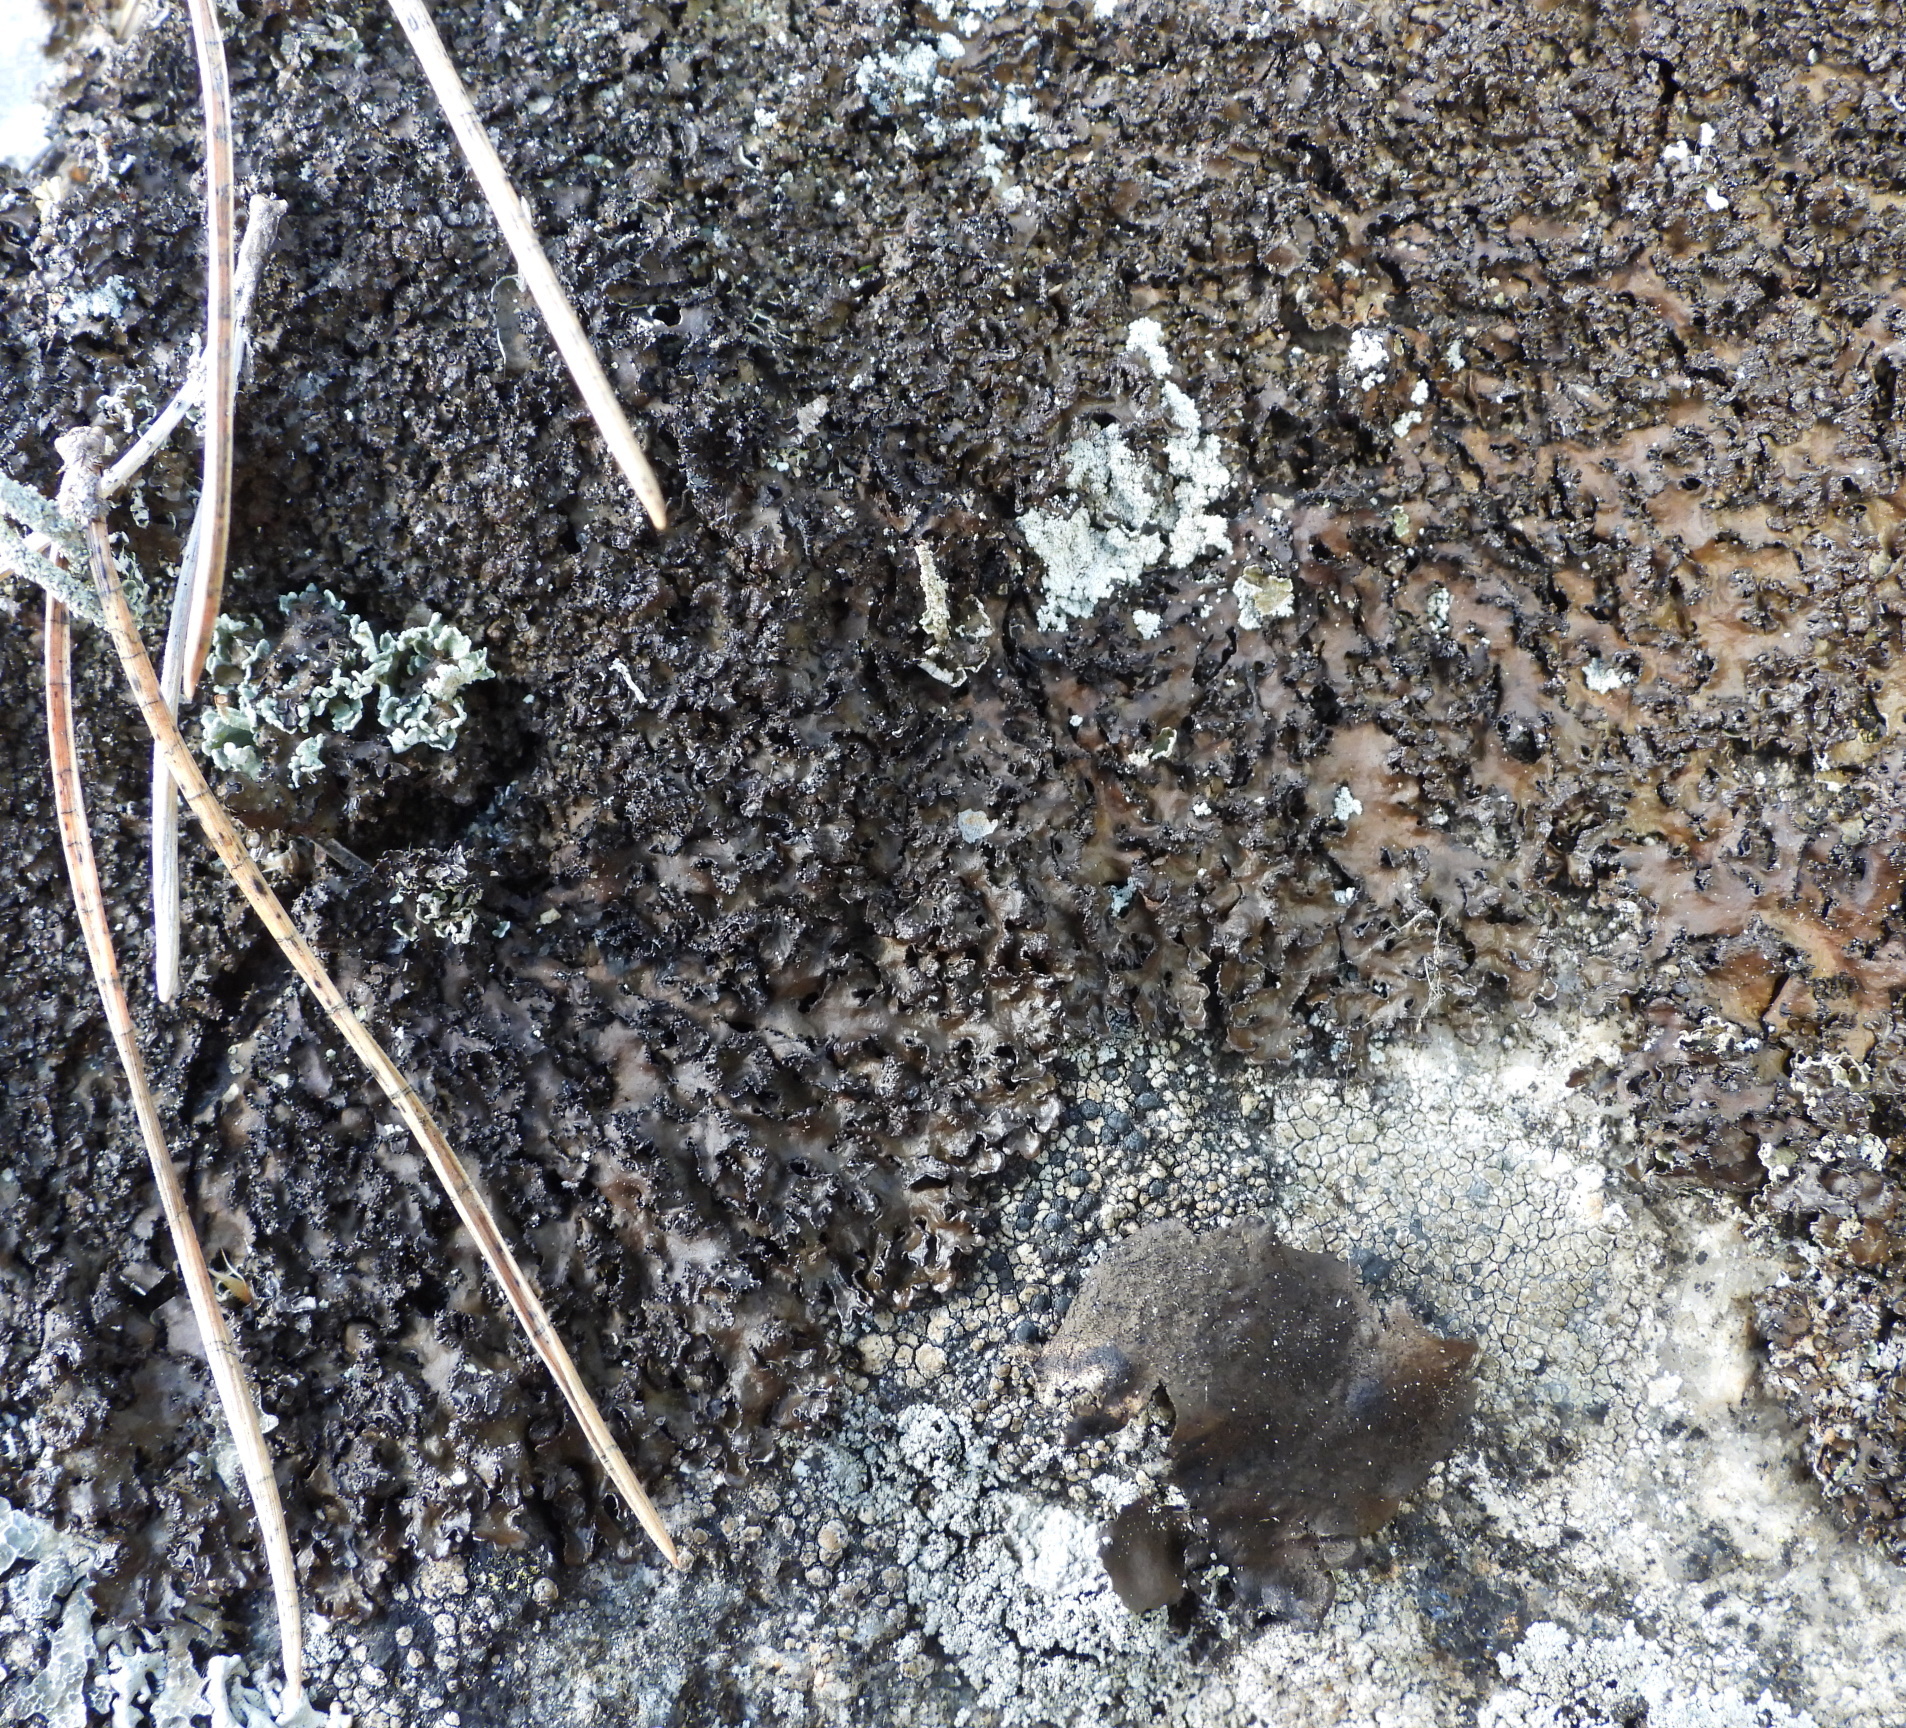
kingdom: Fungi
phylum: Ascomycota
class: Lecanoromycetes
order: Lecanorales
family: Parmeliaceae
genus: Melanelia
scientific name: Melanelia hepatizon
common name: Rimmed camouflage lichen
